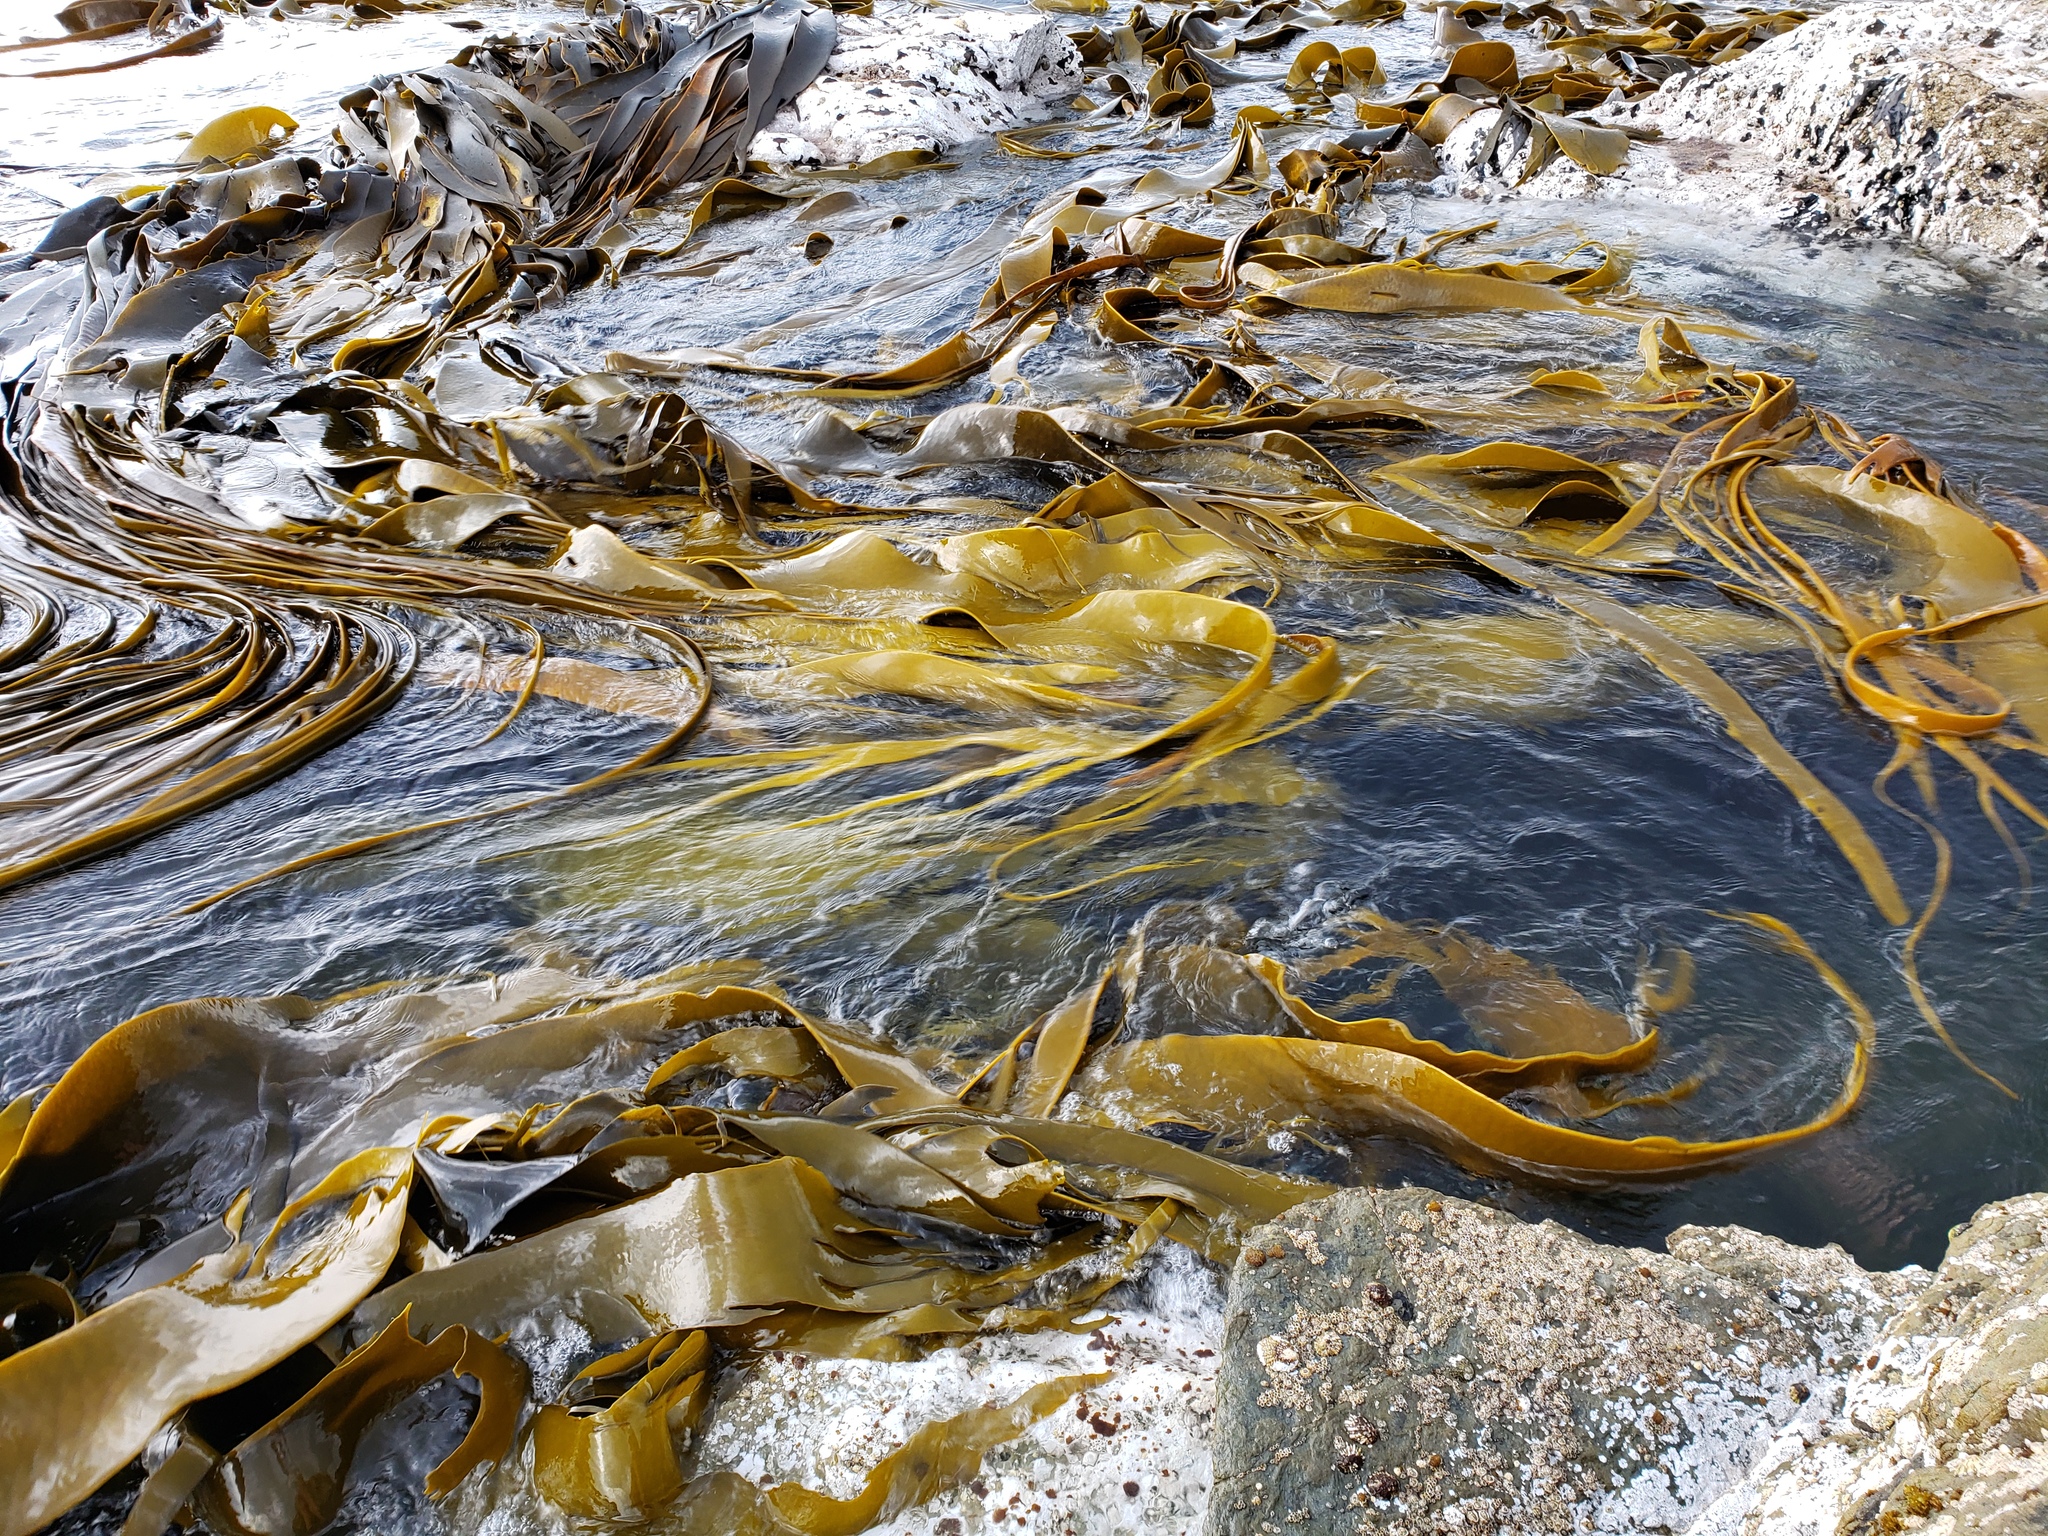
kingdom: Chromista
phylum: Ochrophyta
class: Phaeophyceae
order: Fucales
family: Durvillaeaceae
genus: Durvillaea
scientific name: Durvillaea antarctica
